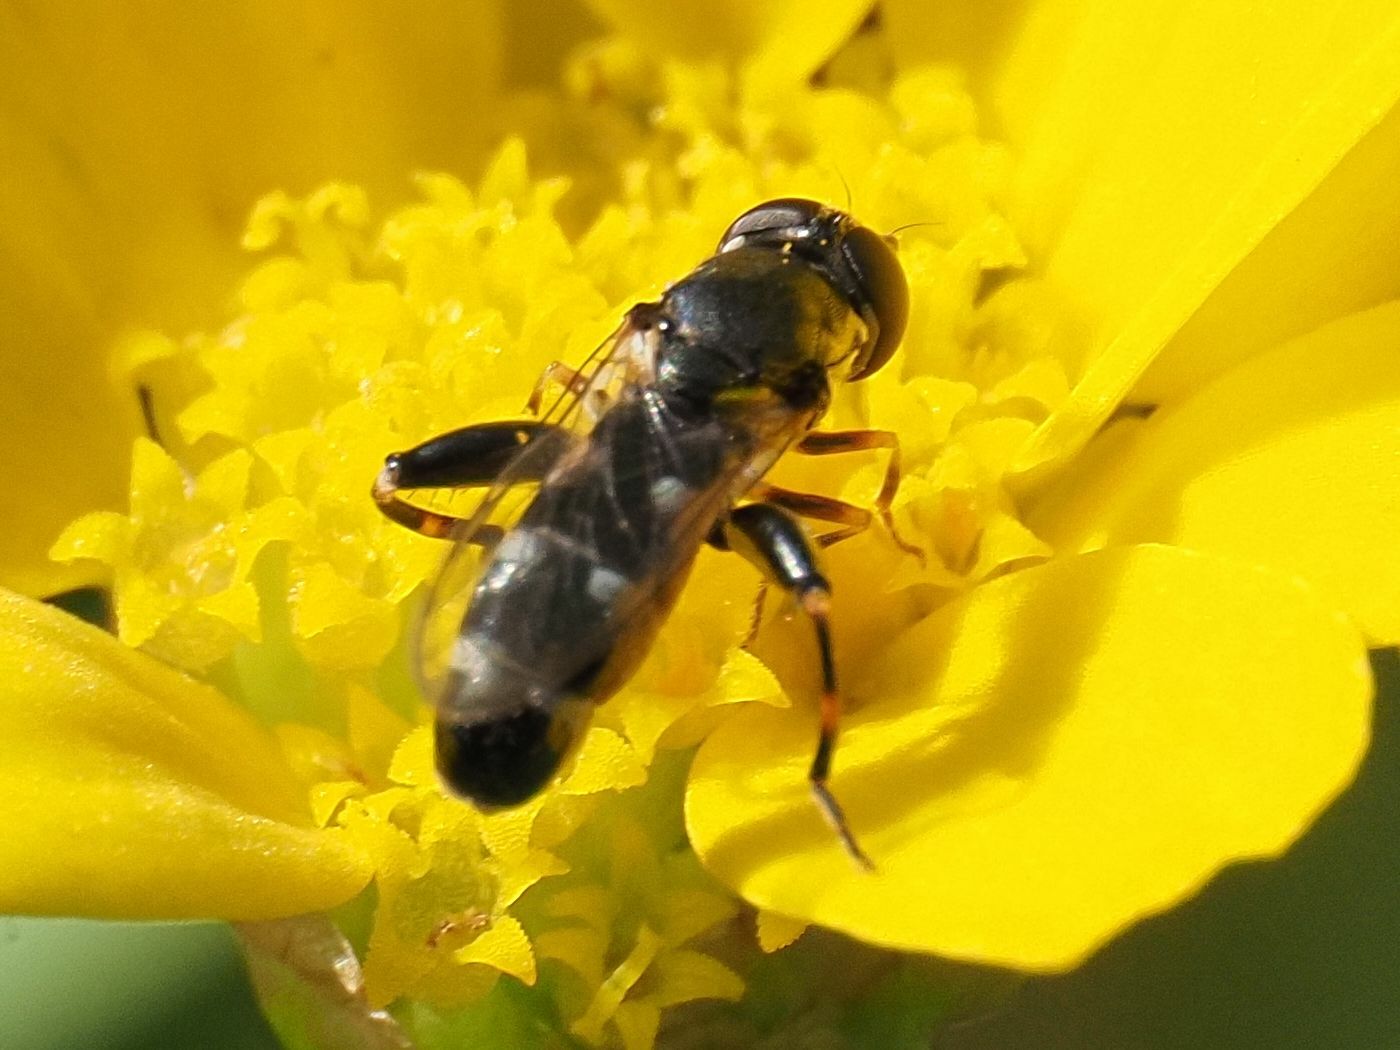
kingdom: Animalia
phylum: Arthropoda
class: Insecta
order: Diptera
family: Syrphidae
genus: Syritta
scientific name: Syritta pipiens
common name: Hover fly
